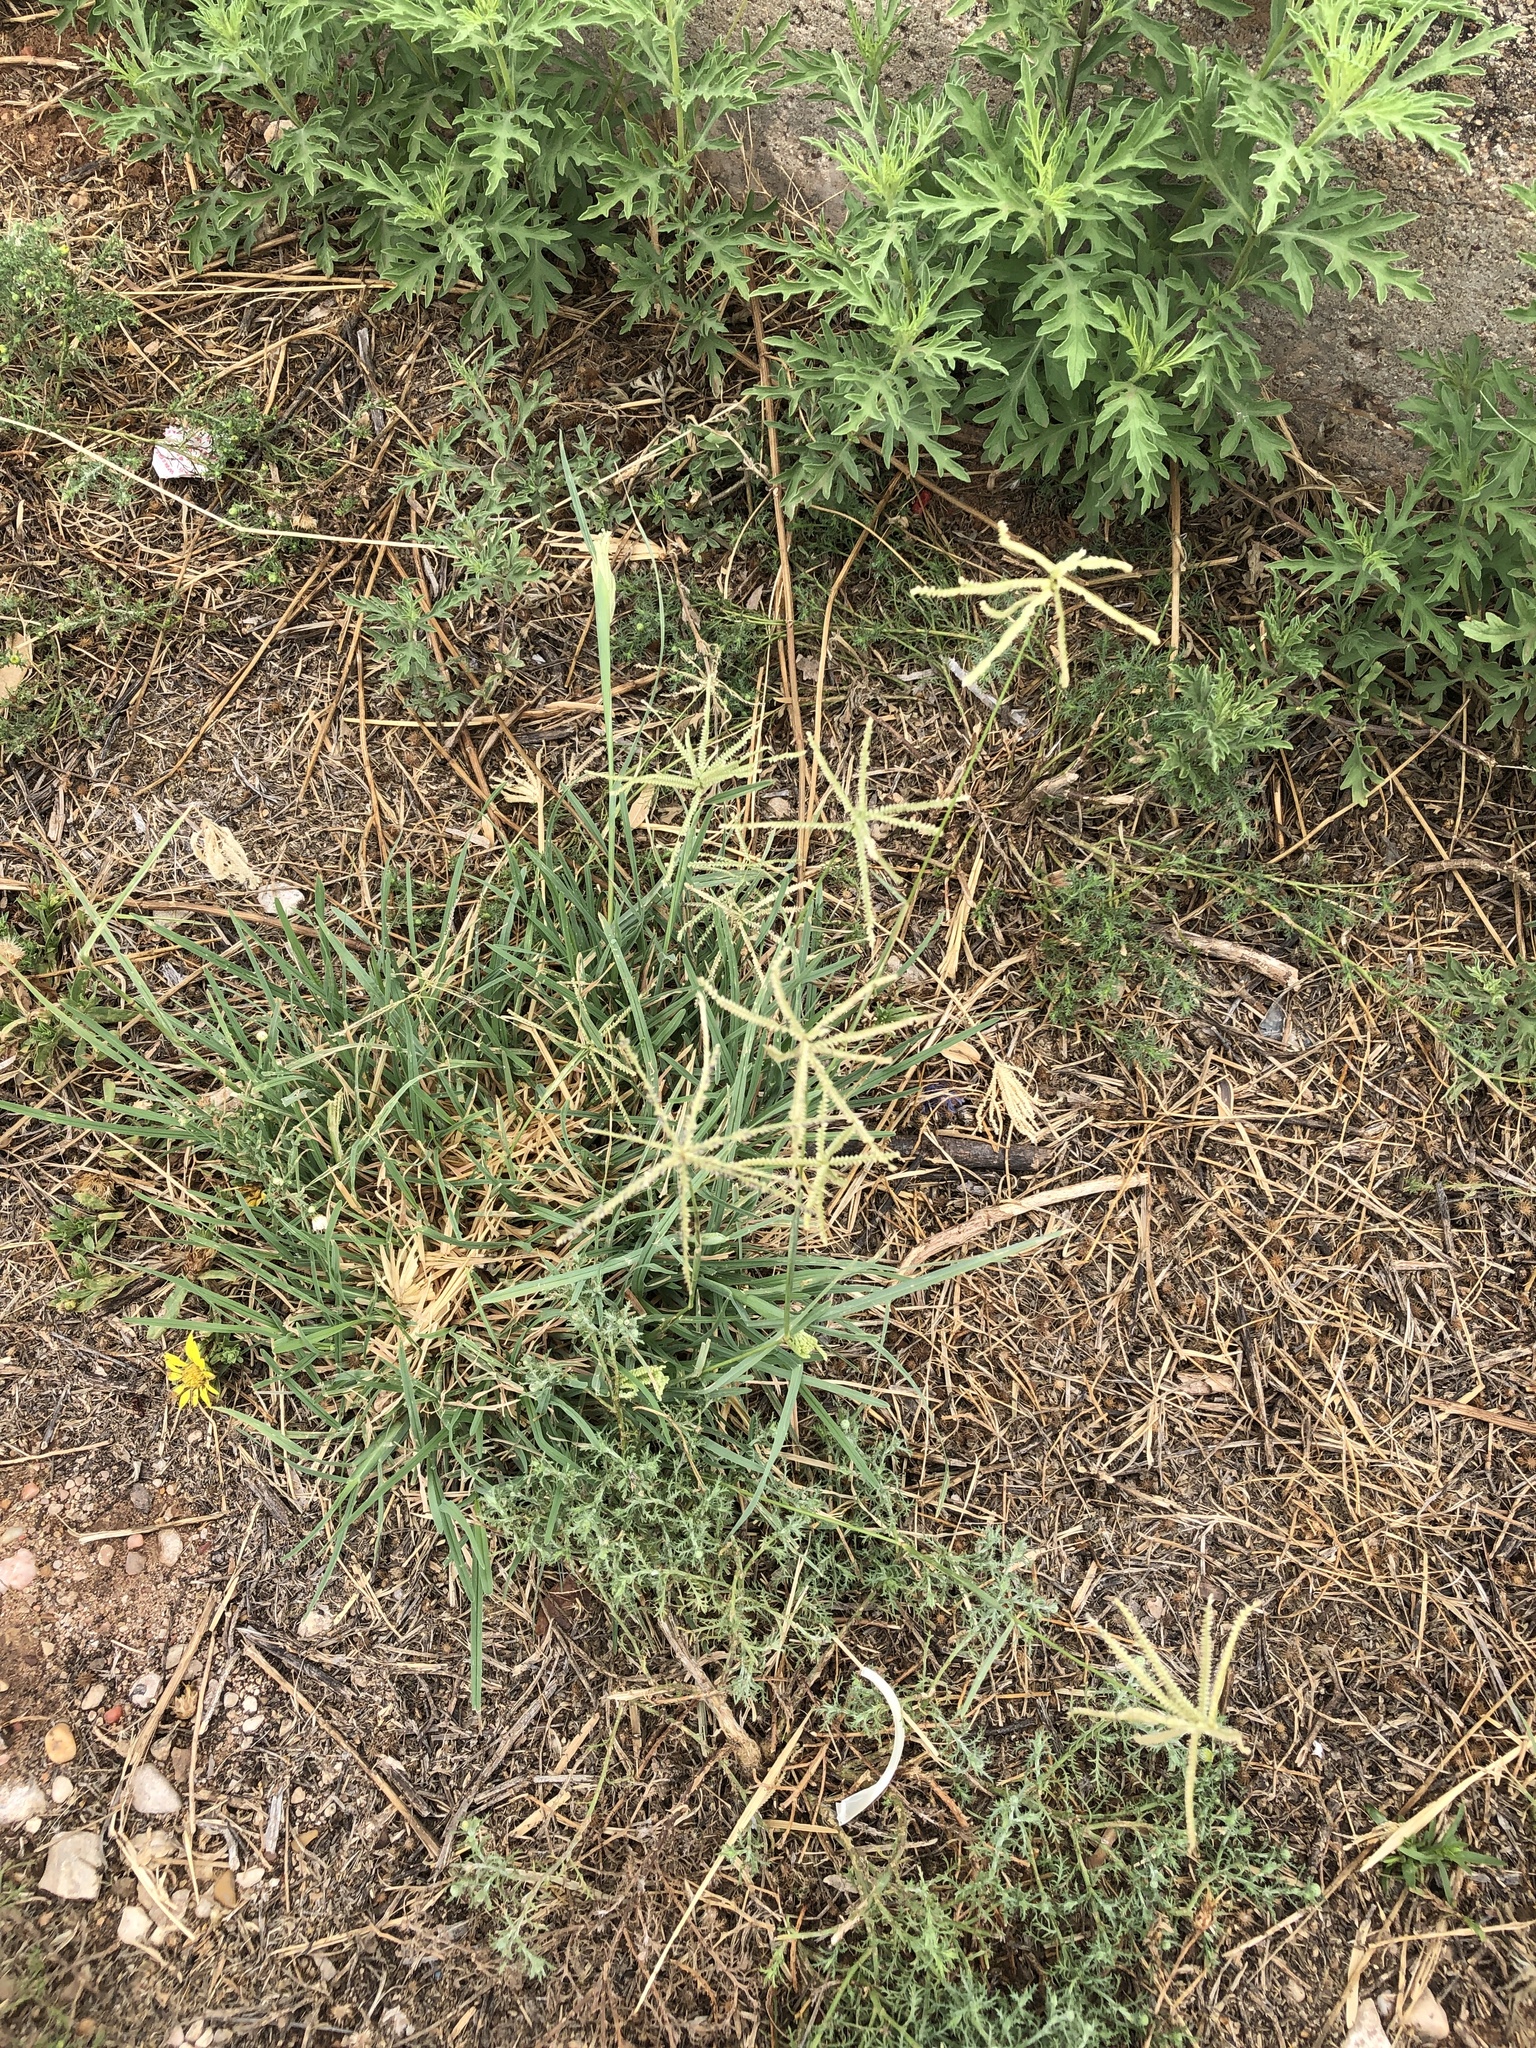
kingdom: Plantae
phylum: Tracheophyta
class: Liliopsida
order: Poales
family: Poaceae
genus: Chloris
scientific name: Chloris cucullata
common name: Hooded windmill grass
